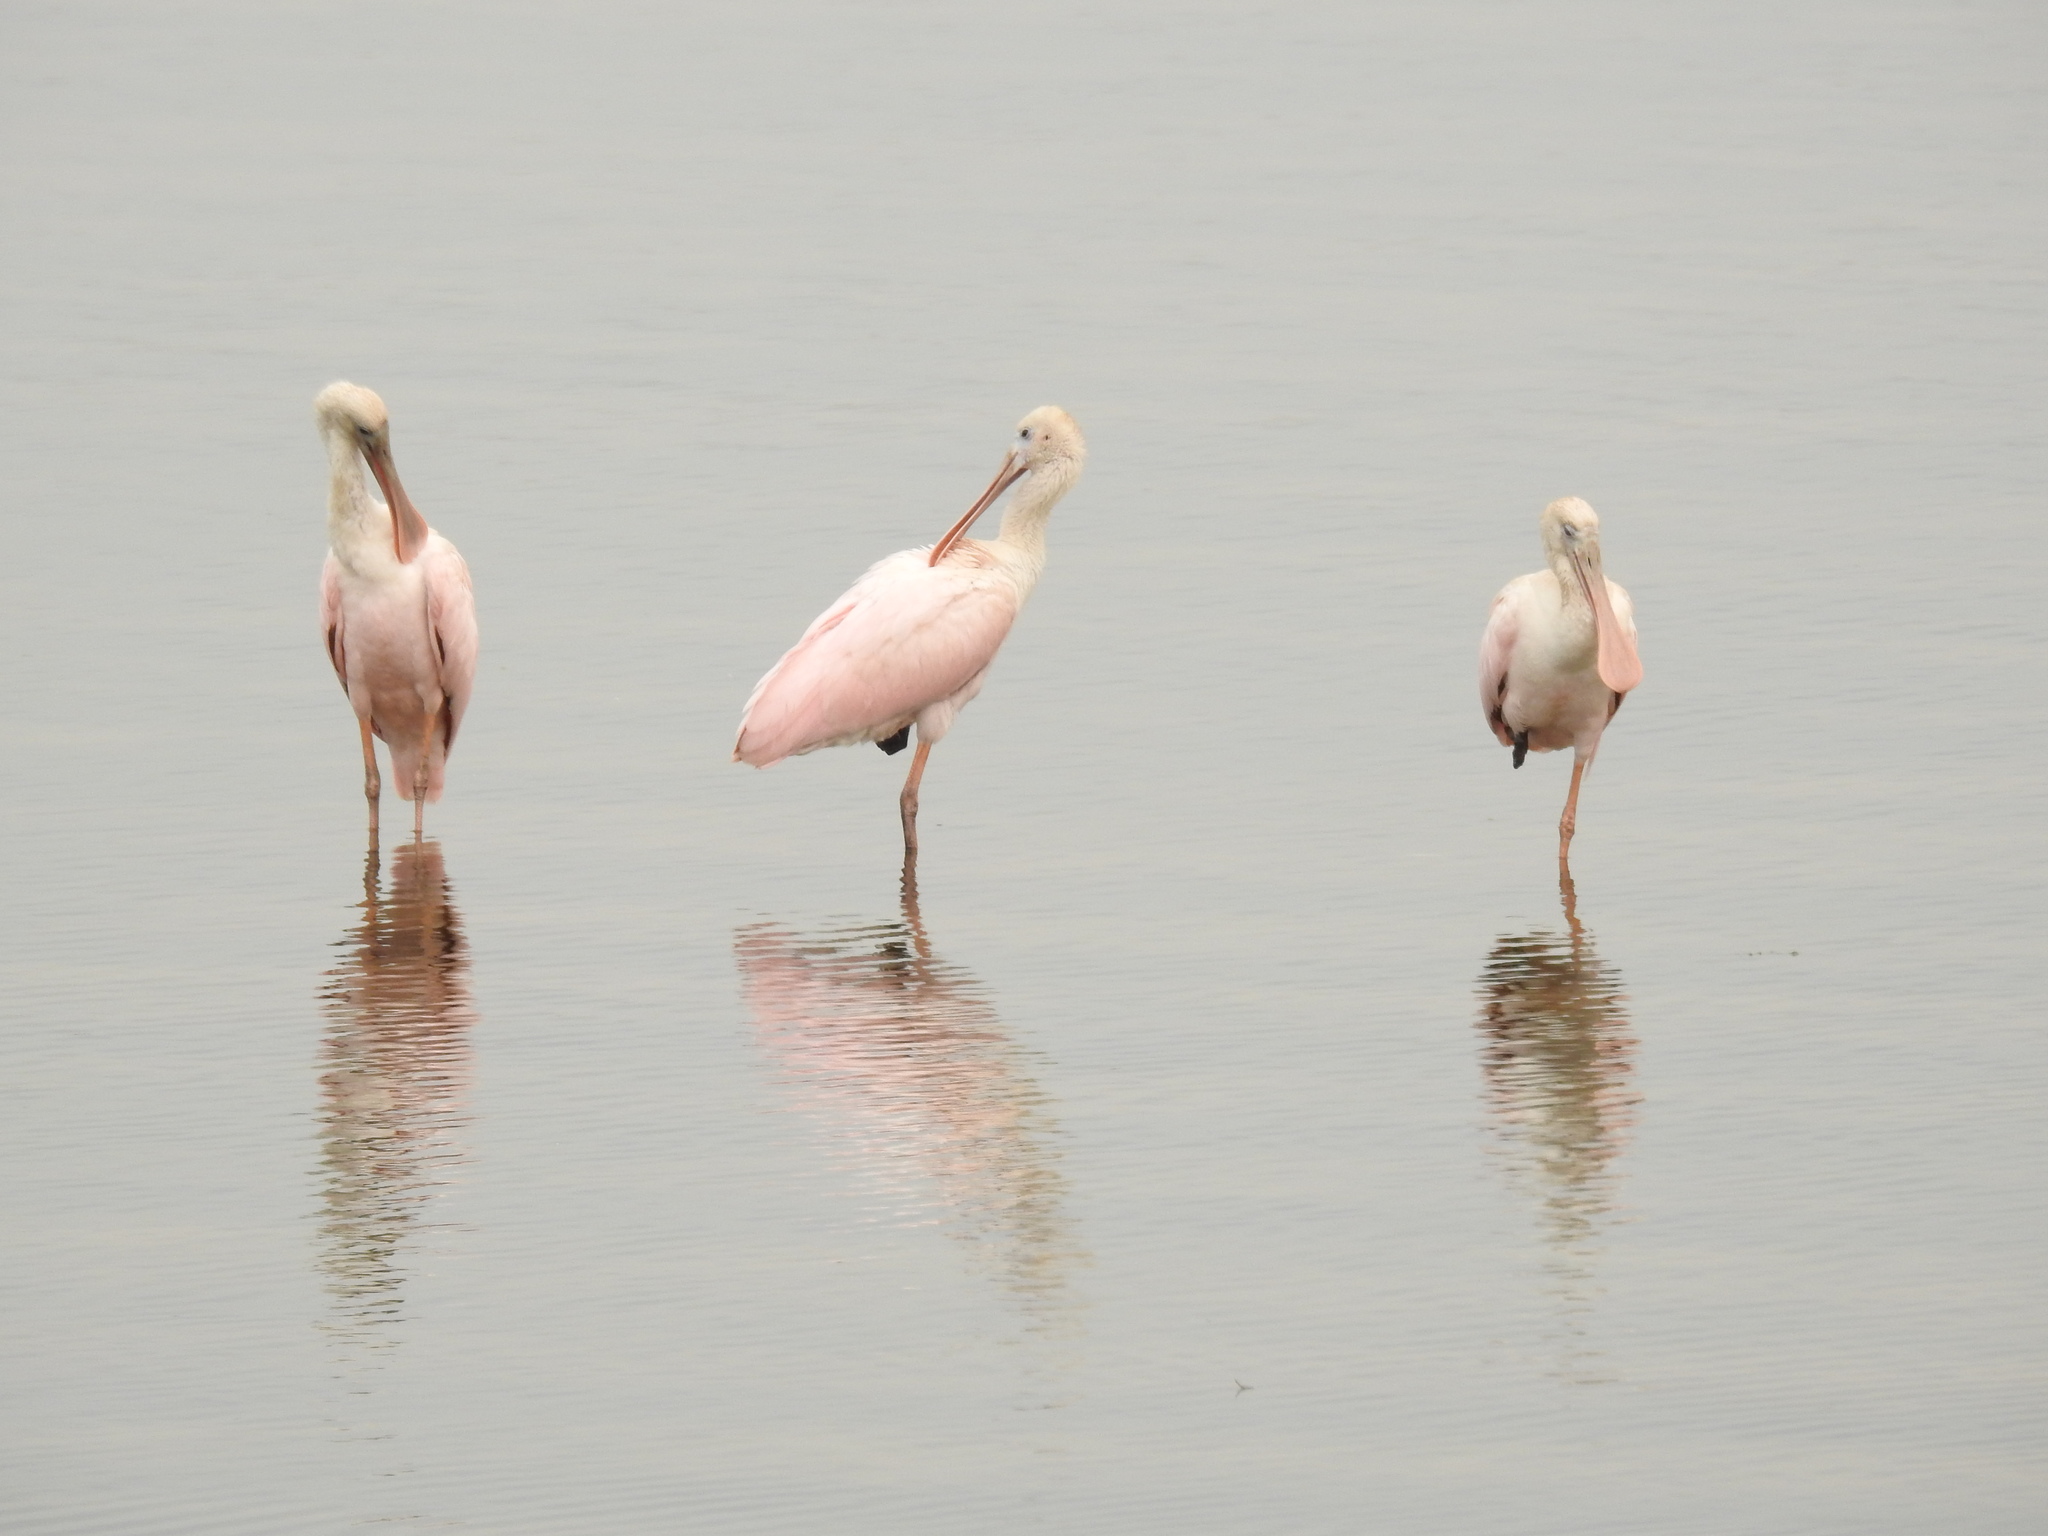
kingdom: Animalia
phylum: Chordata
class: Aves
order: Pelecaniformes
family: Threskiornithidae
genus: Platalea
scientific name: Platalea ajaja
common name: Roseate spoonbill
